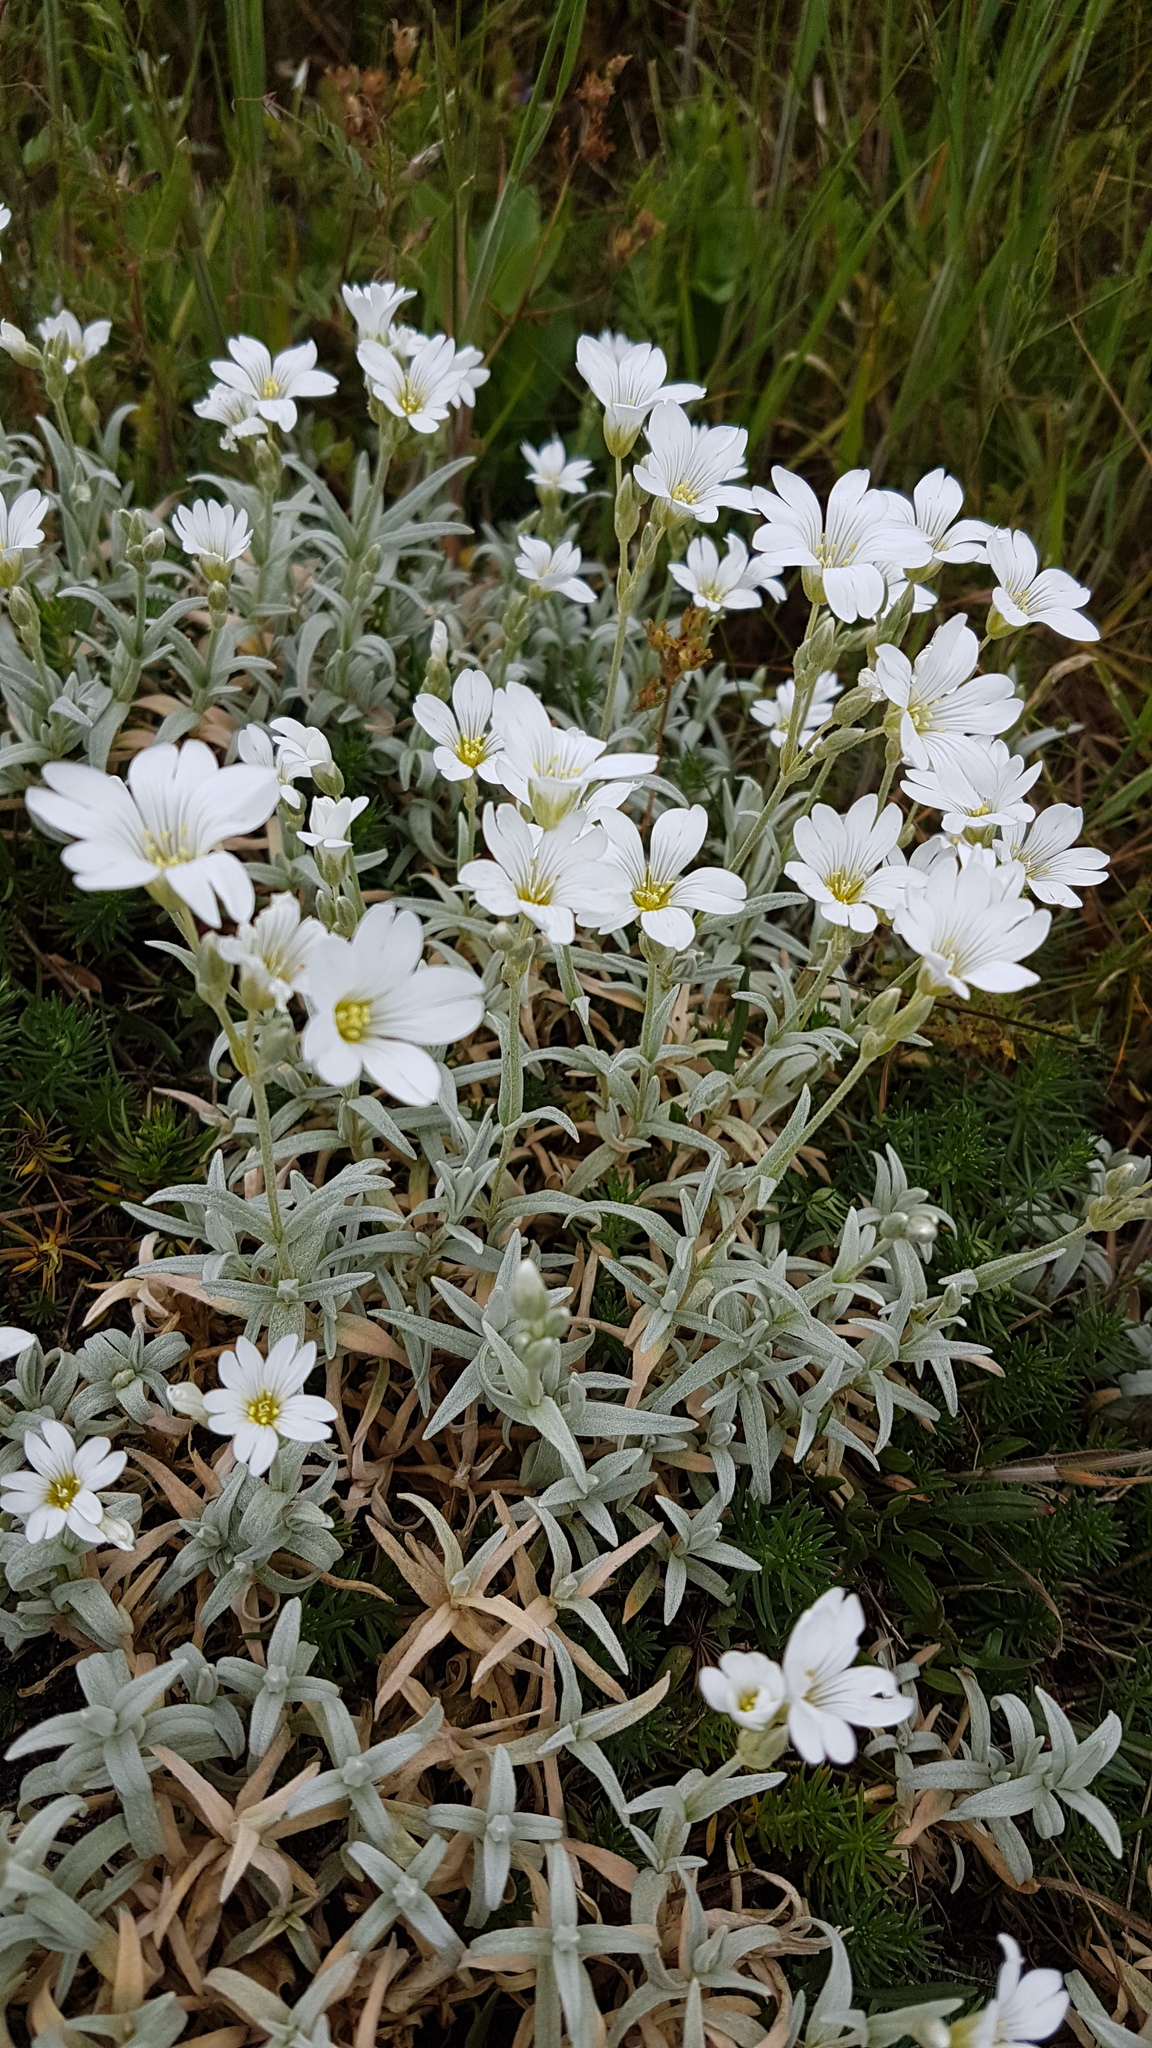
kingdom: Plantae
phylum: Tracheophyta
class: Magnoliopsida
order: Caryophyllales
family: Caryophyllaceae
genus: Cerastium
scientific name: Cerastium tomentosum
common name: Snow-in-summer
